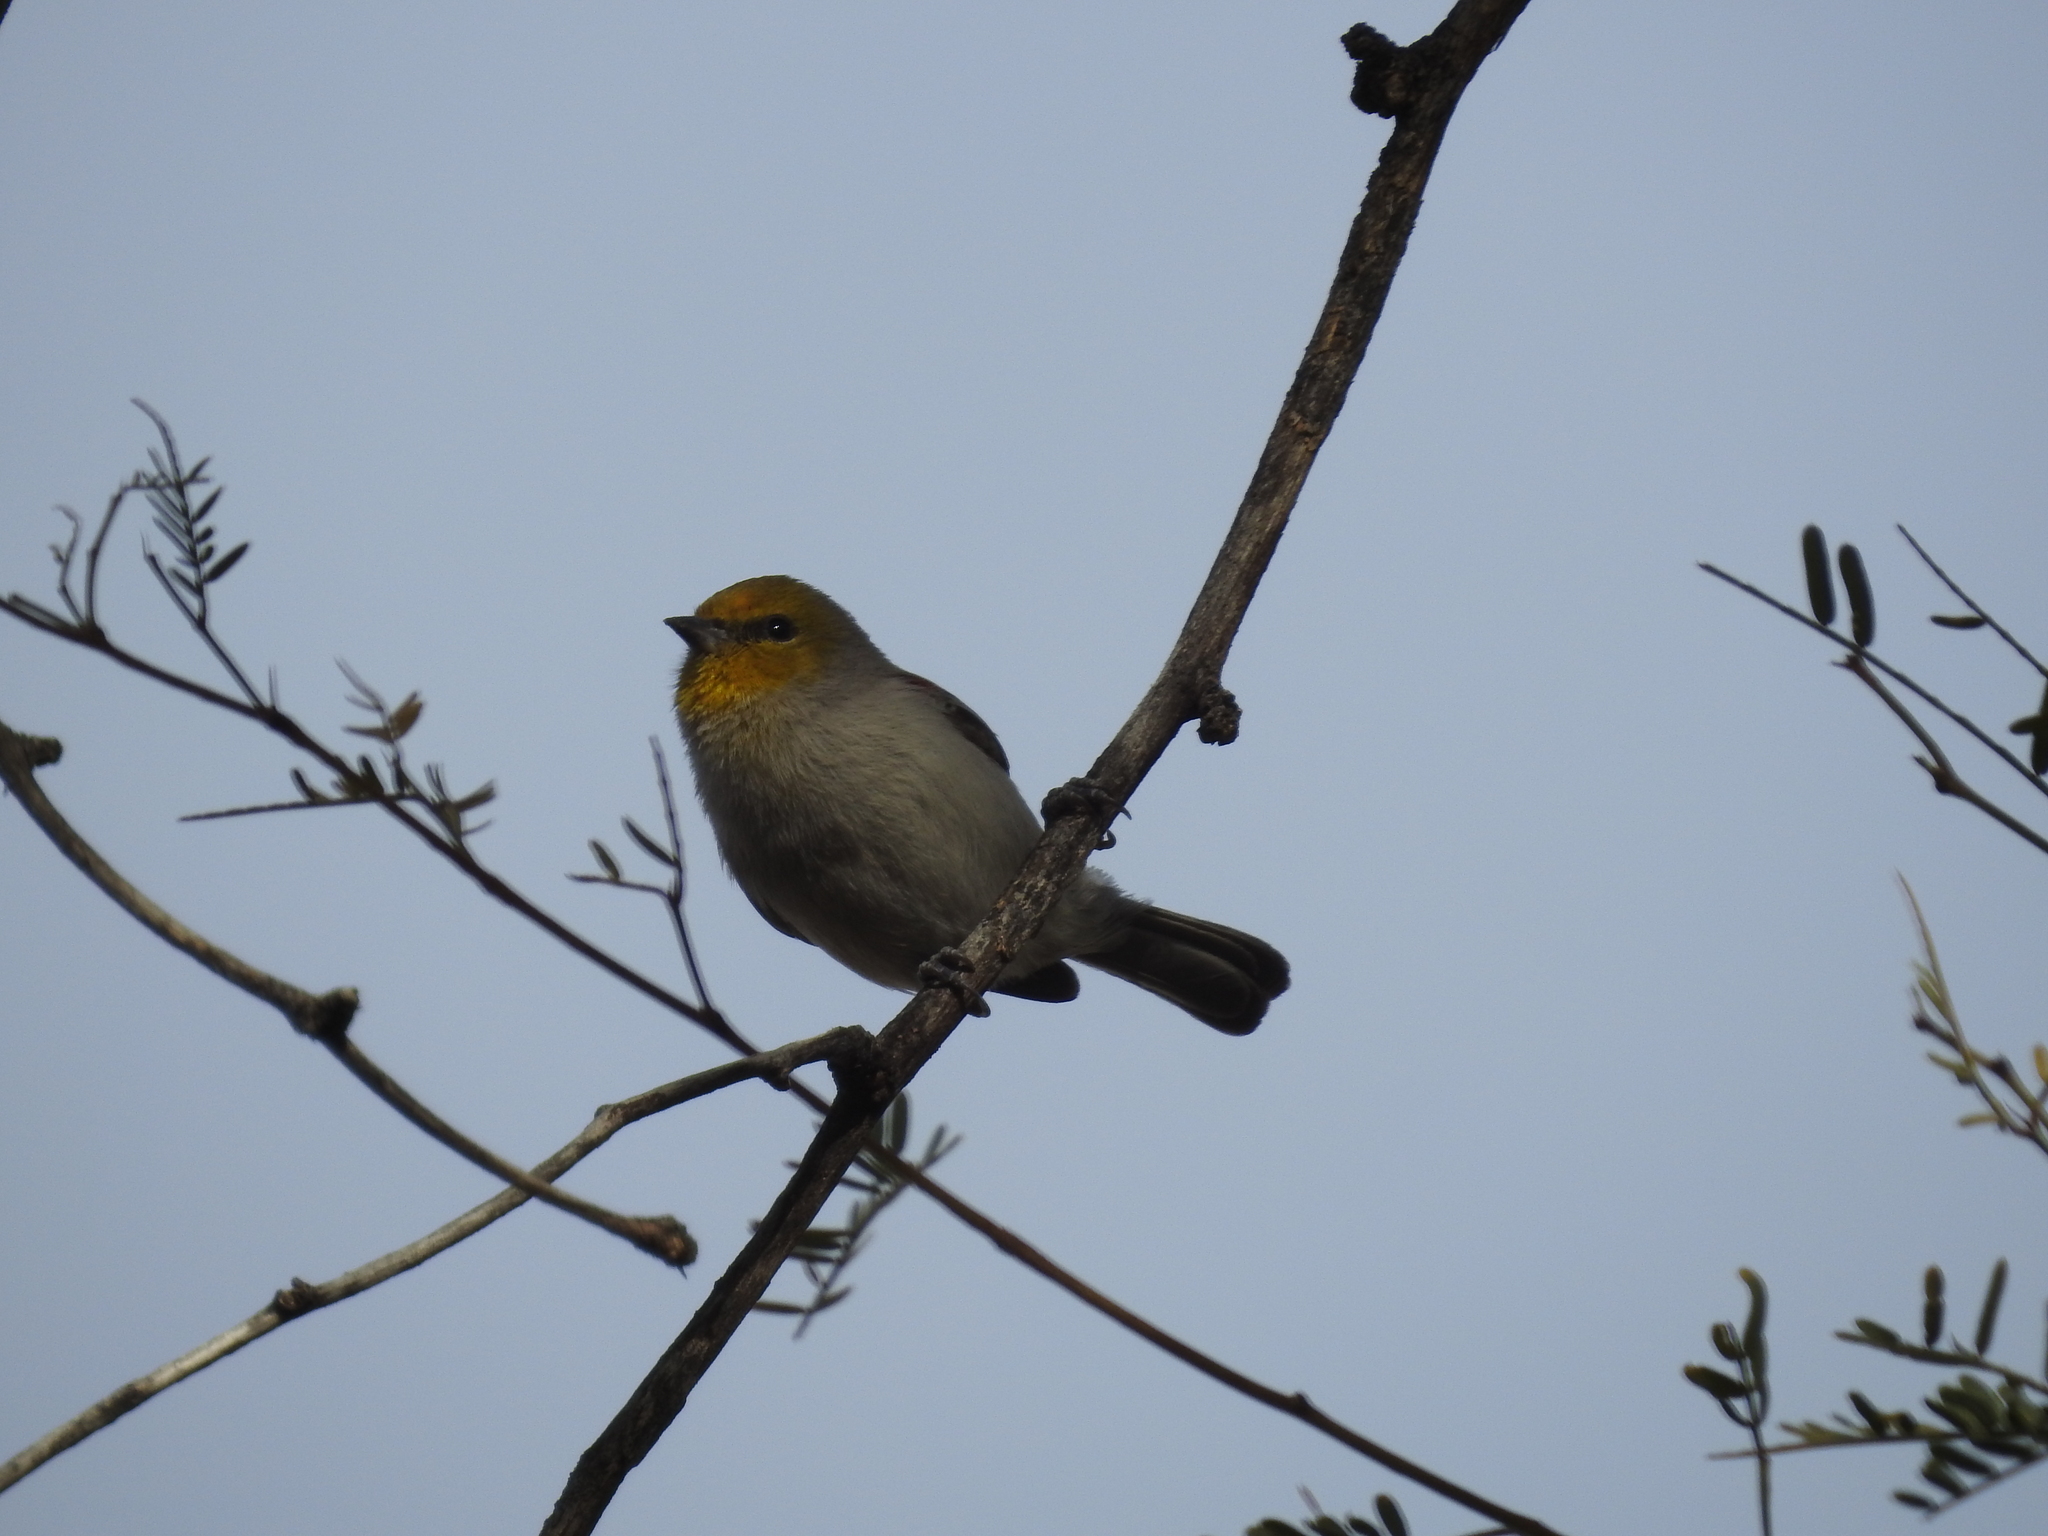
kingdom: Animalia
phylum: Chordata
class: Aves
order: Passeriformes
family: Remizidae
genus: Auriparus
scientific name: Auriparus flaviceps
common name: Verdin
